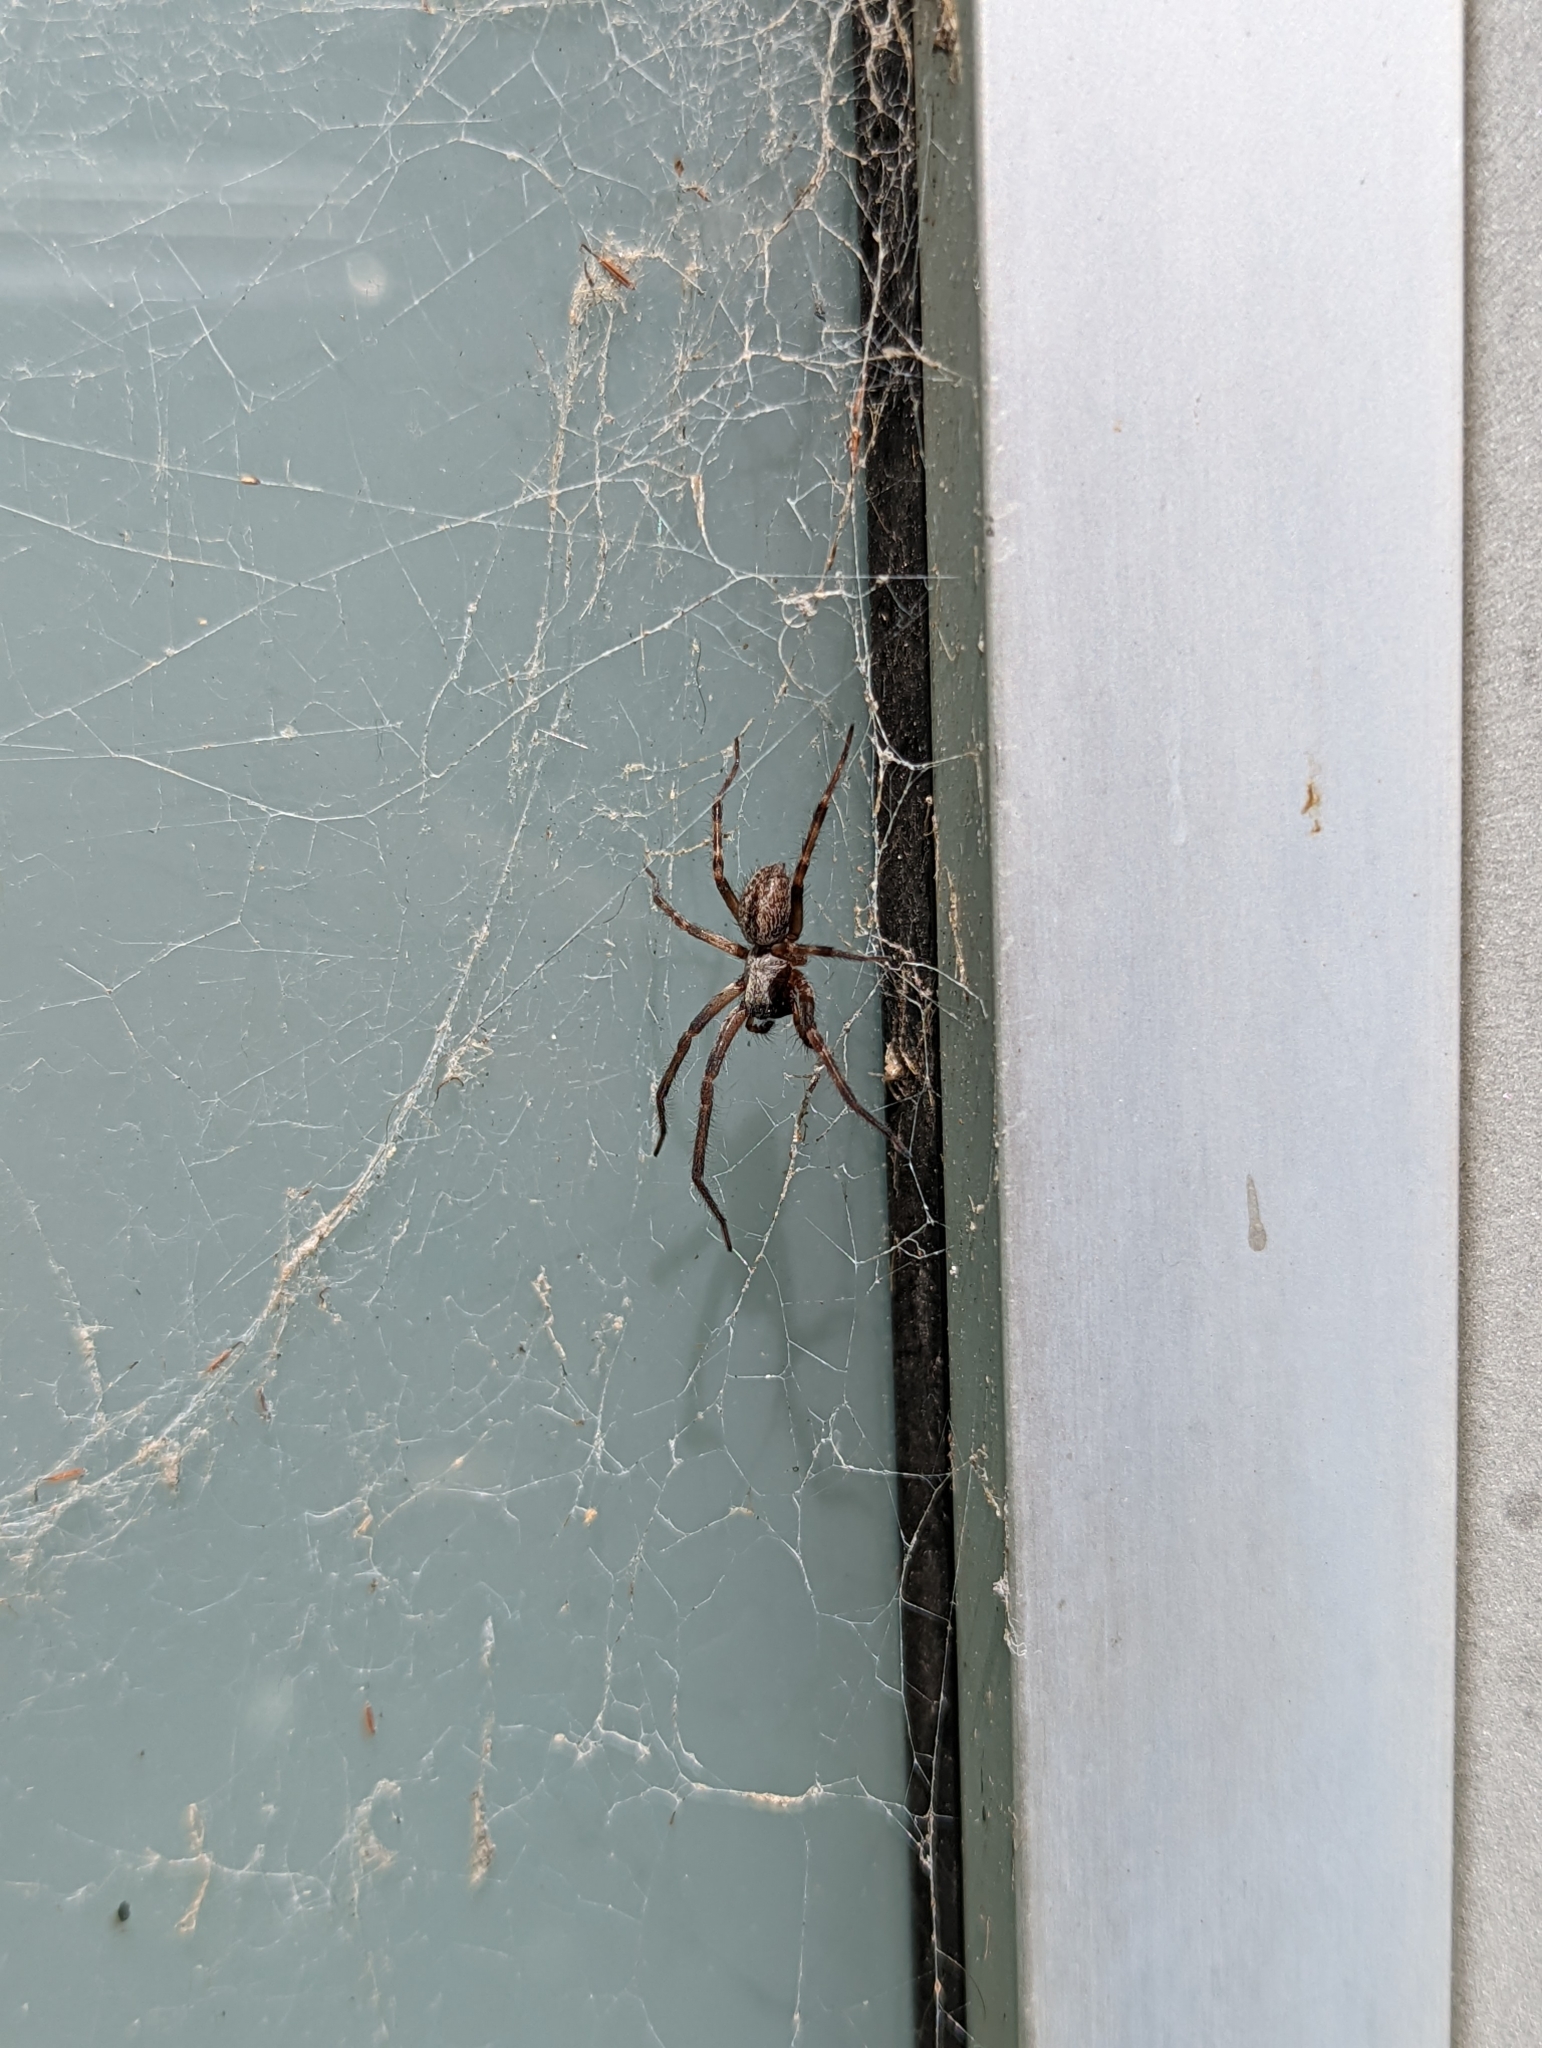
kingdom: Animalia
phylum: Arthropoda
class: Arachnida
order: Araneae
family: Desidae
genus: Badumna
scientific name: Badumna longinqua
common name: Gray house spider
